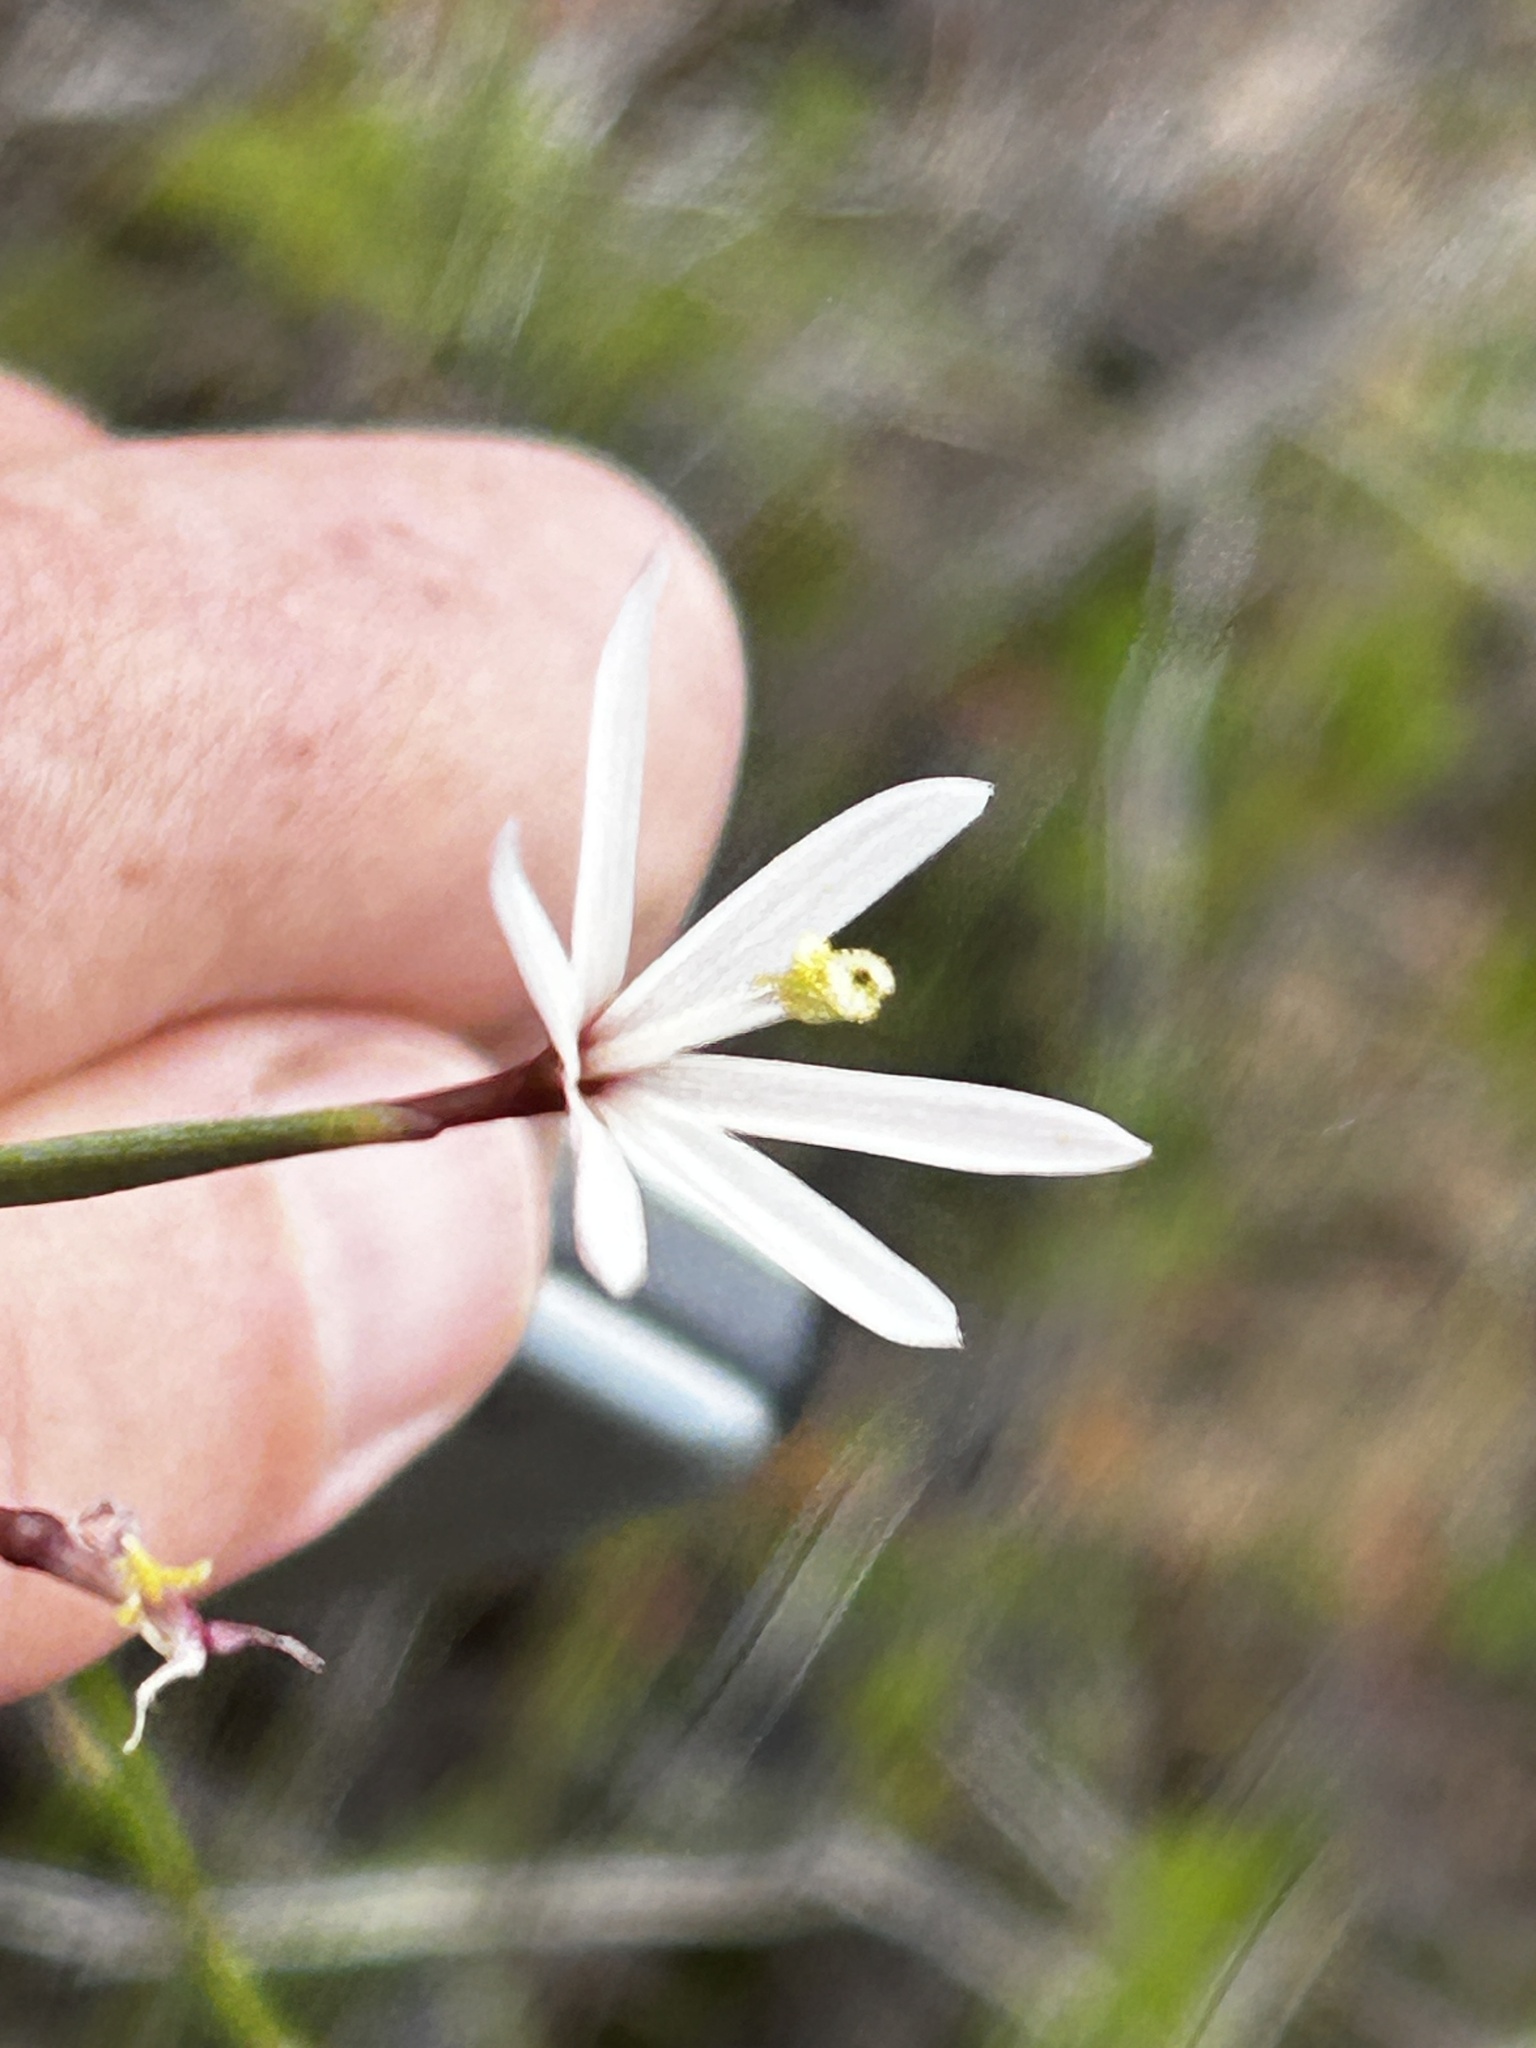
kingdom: Plantae
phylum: Tracheophyta
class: Liliopsida
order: Asparagales
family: Iridaceae
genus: Geissorhiza
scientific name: Geissorhiza tenella
